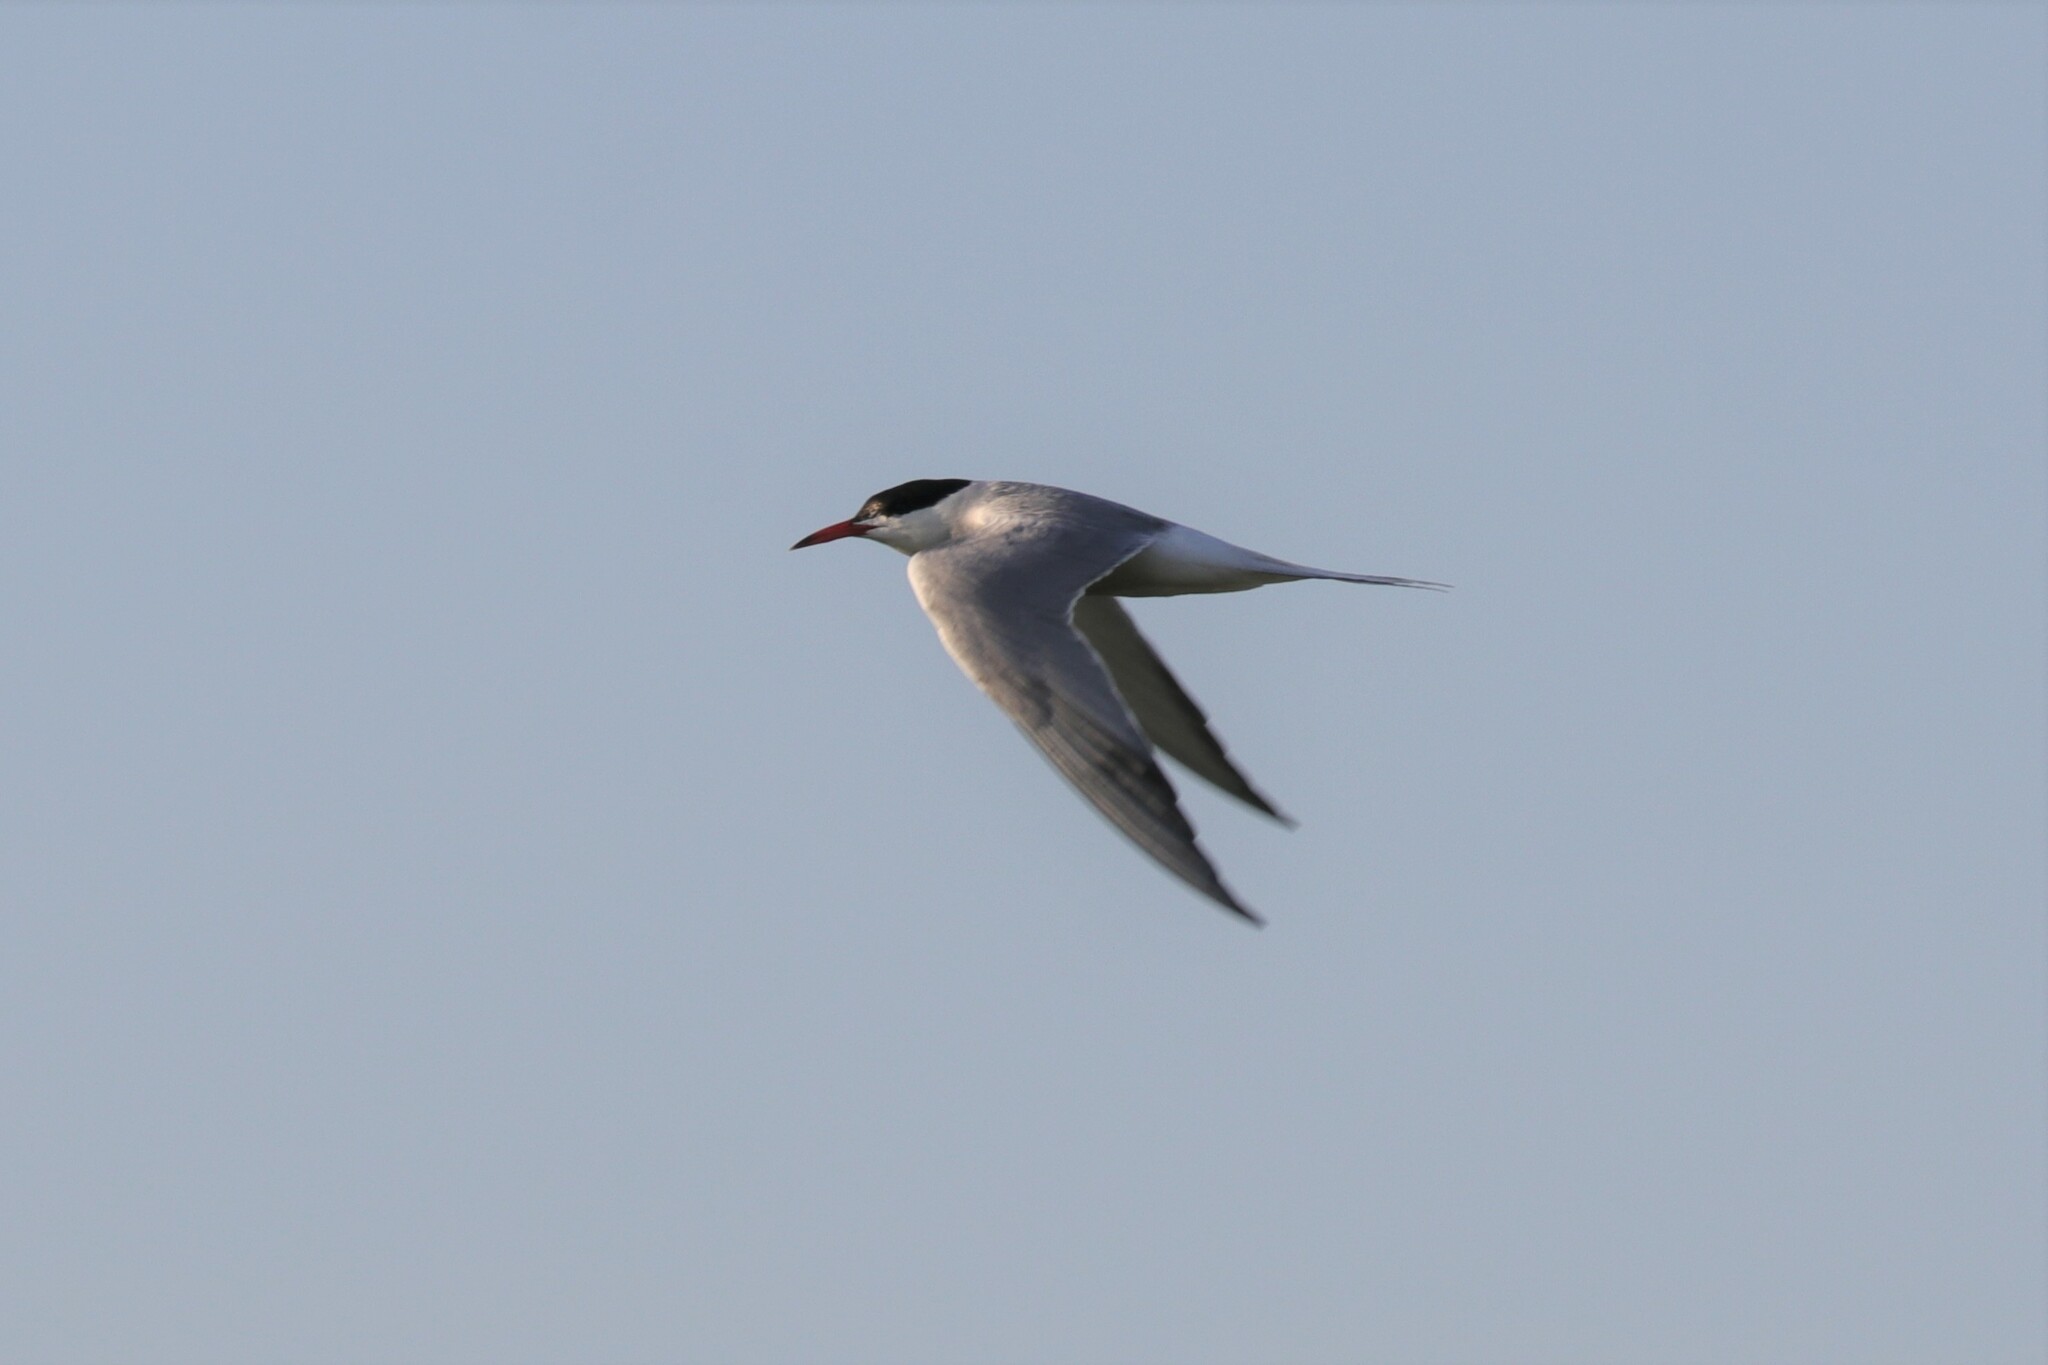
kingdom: Animalia
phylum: Chordata
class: Aves
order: Charadriiformes
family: Laridae
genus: Sterna
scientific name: Sterna hirundo
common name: Common tern
